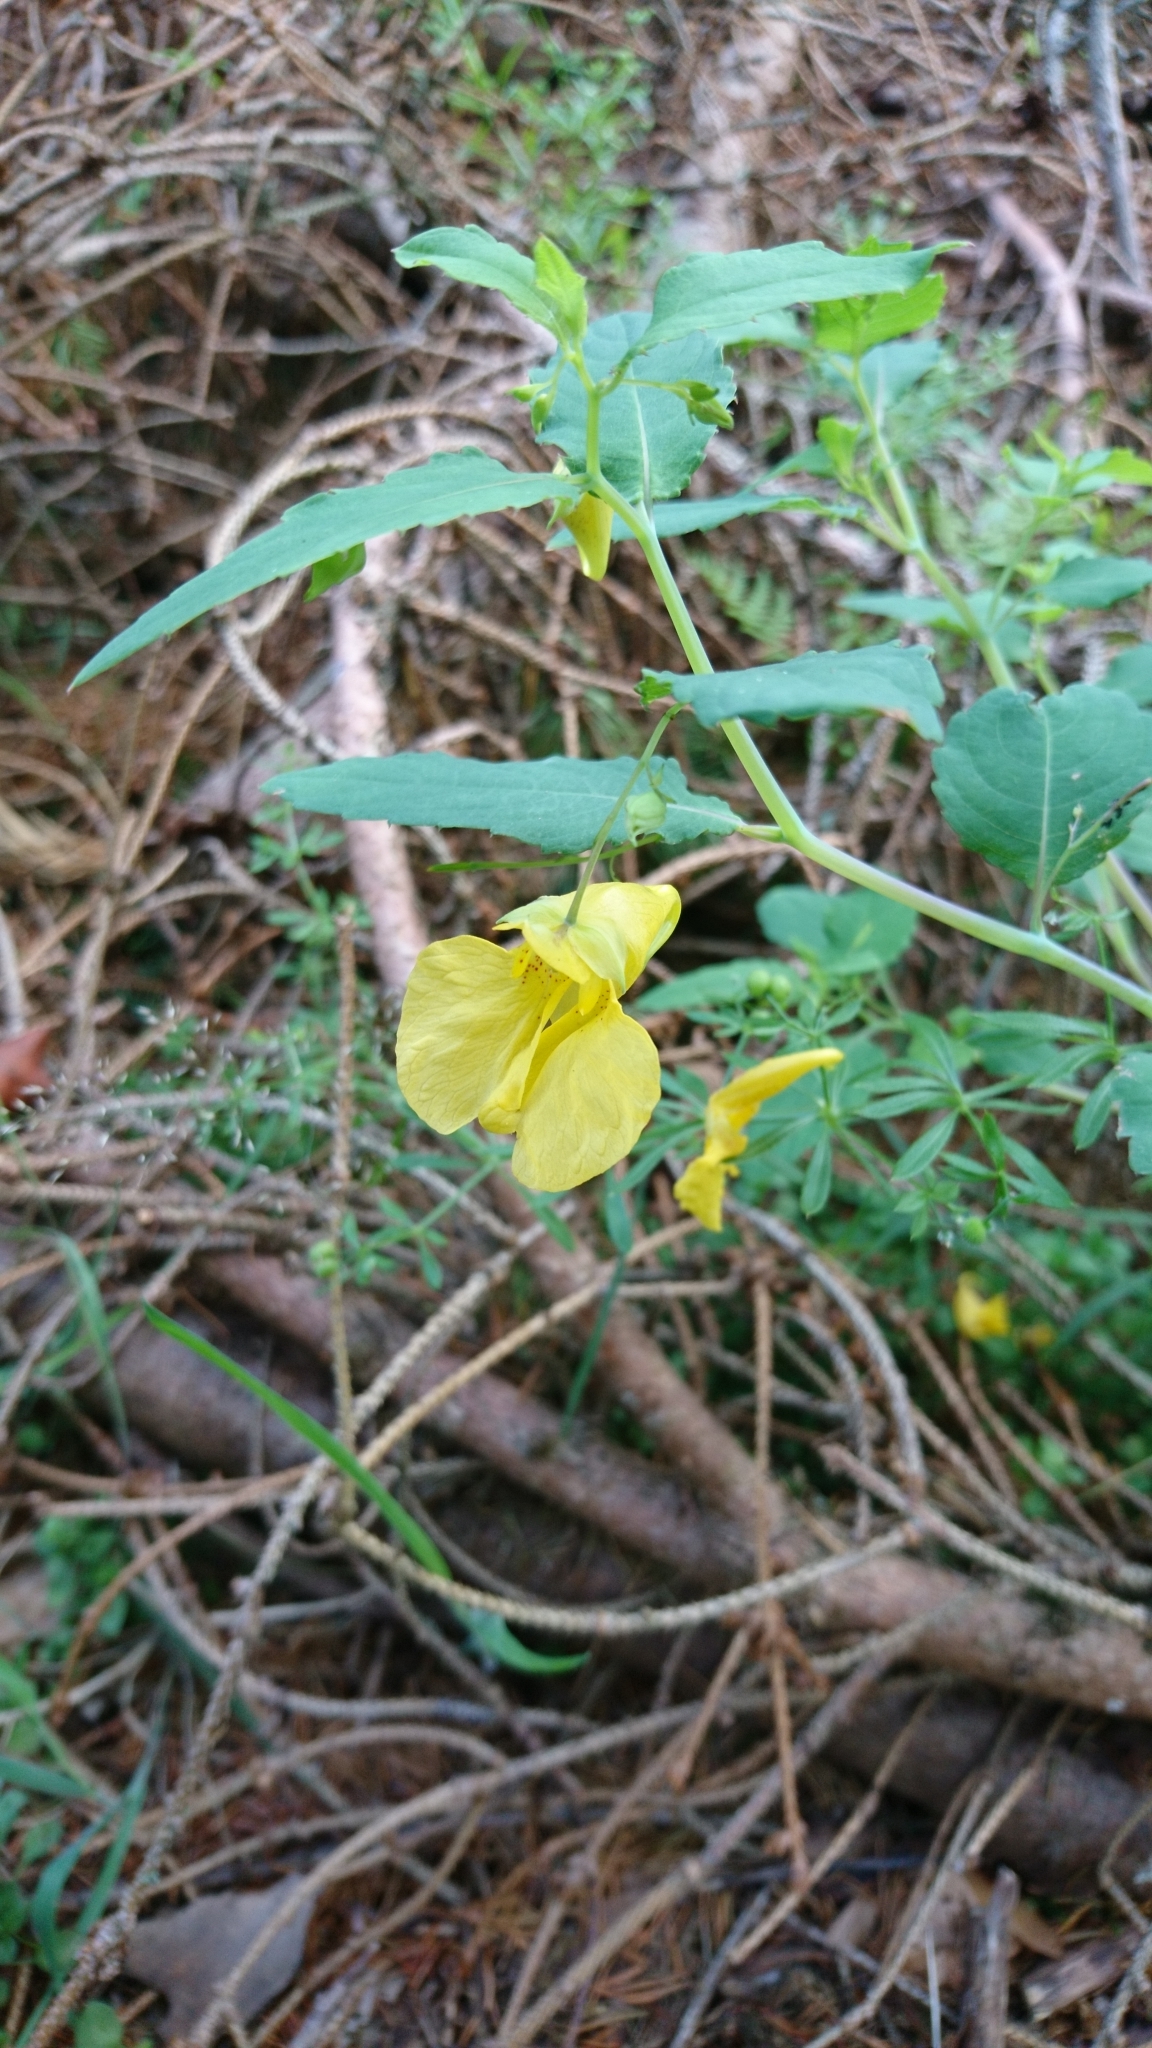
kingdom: Plantae
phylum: Tracheophyta
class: Magnoliopsida
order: Ericales
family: Balsaminaceae
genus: Impatiens
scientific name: Impatiens noli-tangere
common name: Touch-me-not balsam
